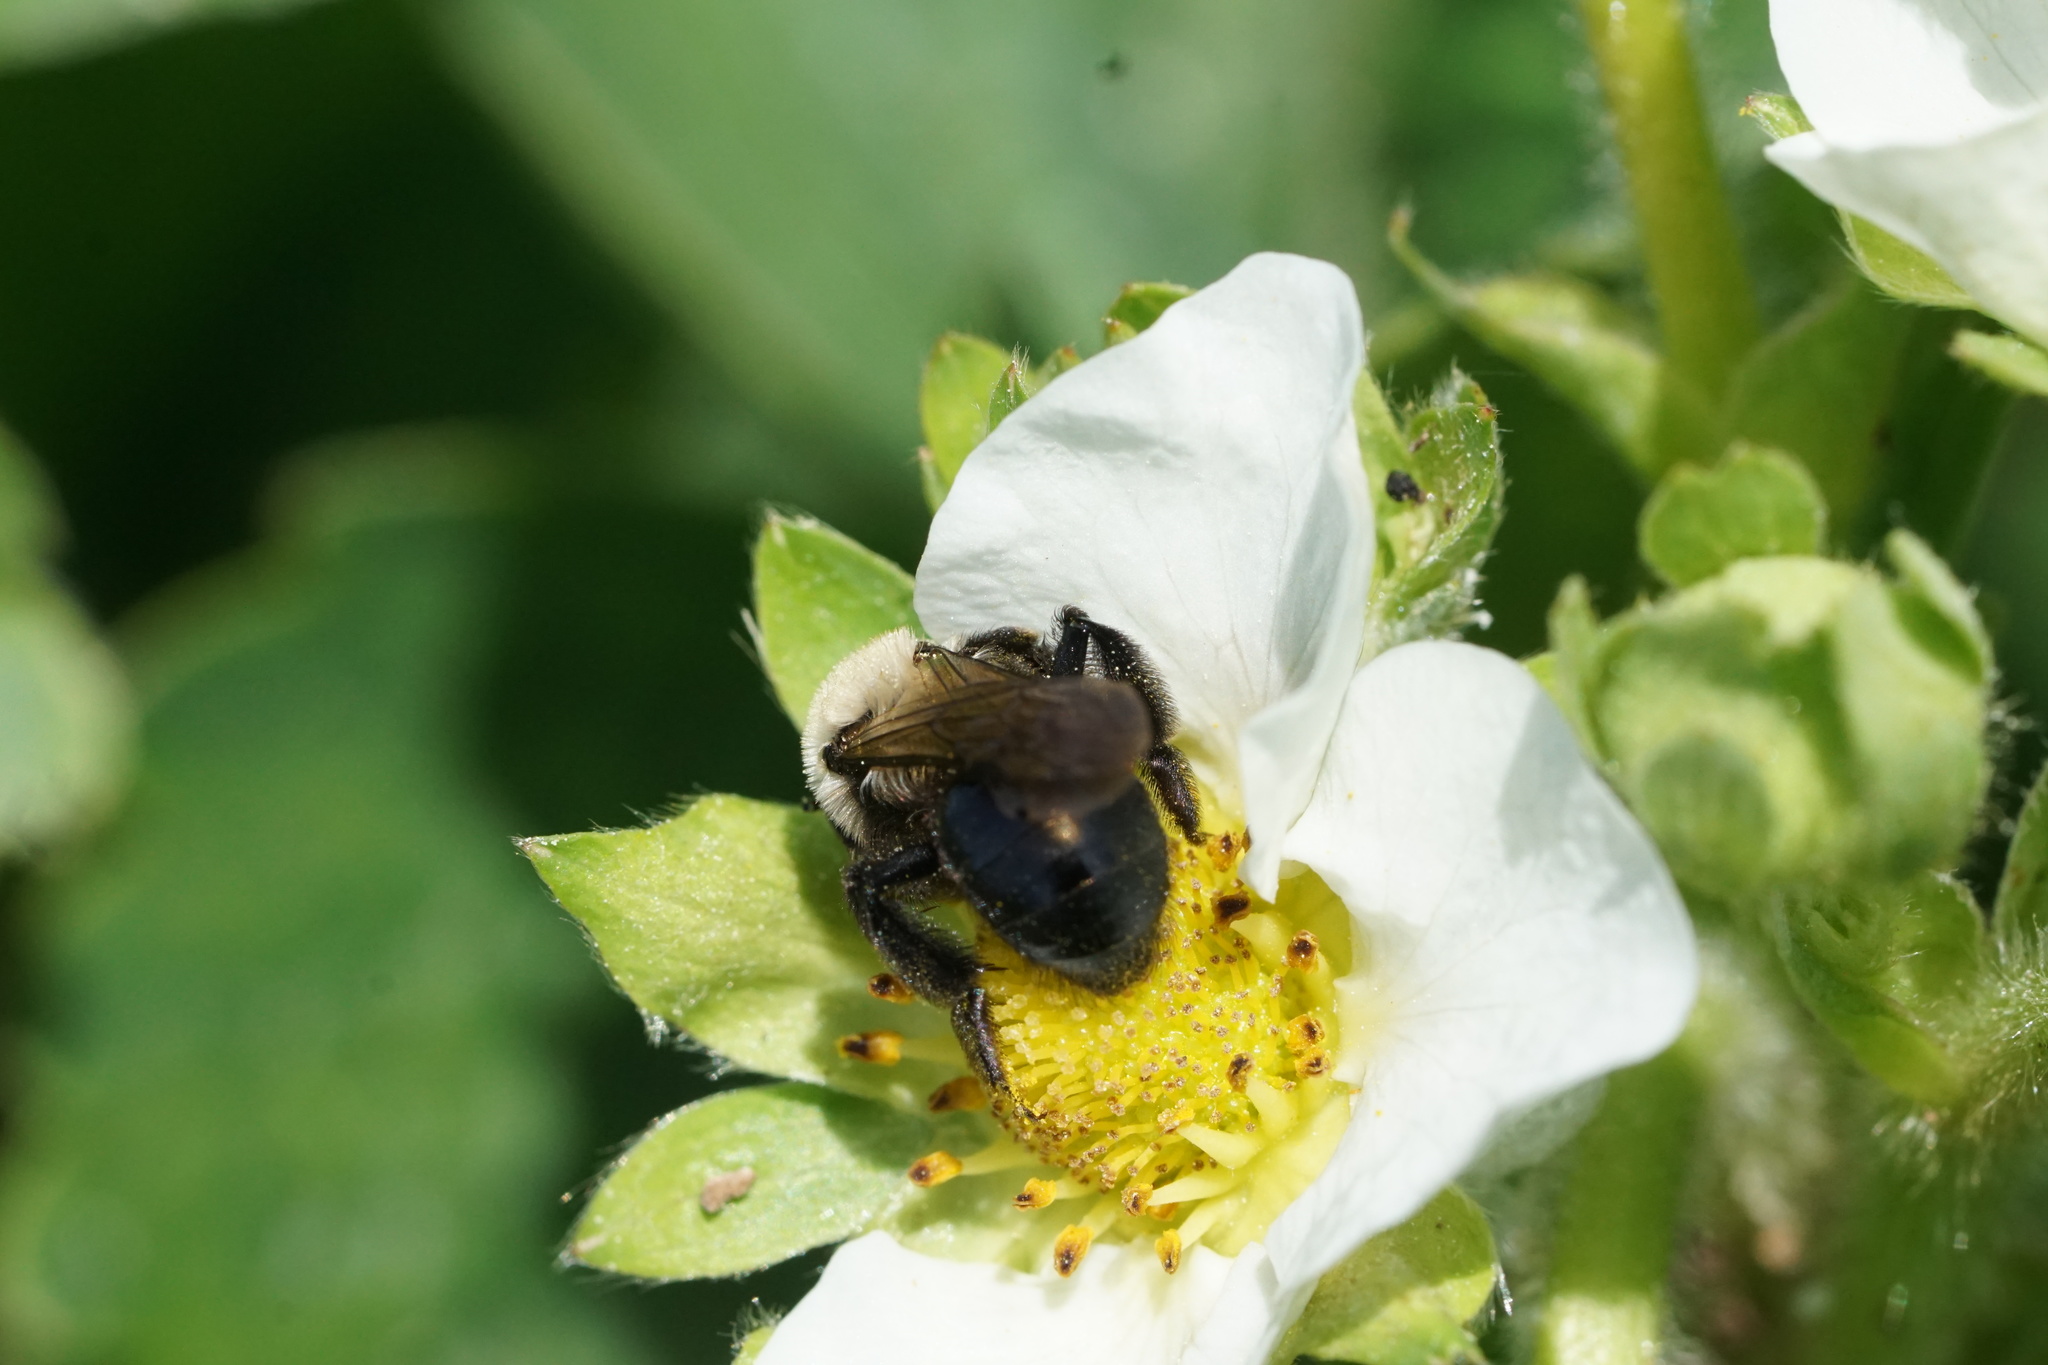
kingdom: Animalia
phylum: Arthropoda
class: Insecta
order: Hymenoptera
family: Andrenidae
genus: Andrena
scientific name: Andrena carlini
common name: Carlin's mining bee
